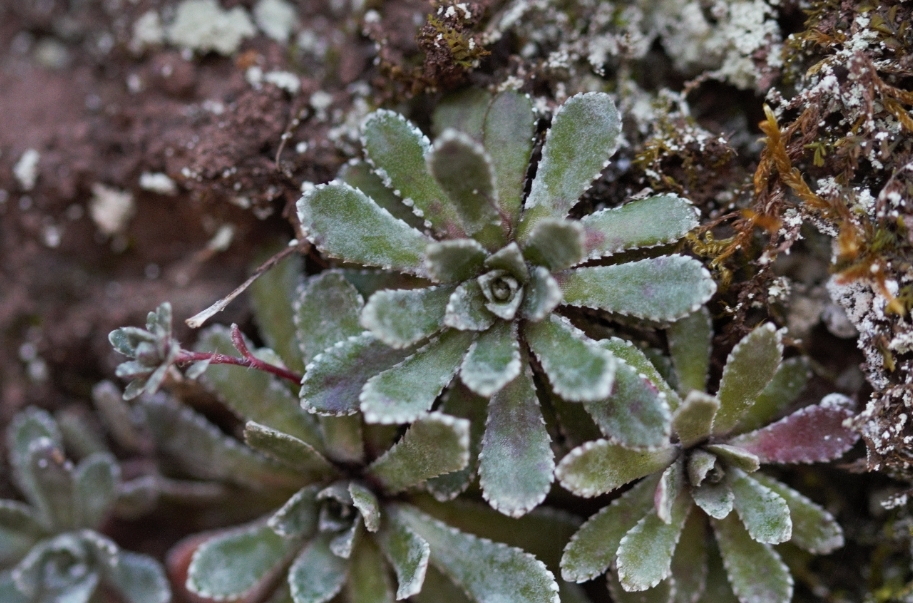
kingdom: Plantae
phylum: Tracheophyta
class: Magnoliopsida
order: Saxifragales
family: Saxifragaceae
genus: Saxifraga
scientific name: Saxifraga paniculata
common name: Livelong saxifrage
